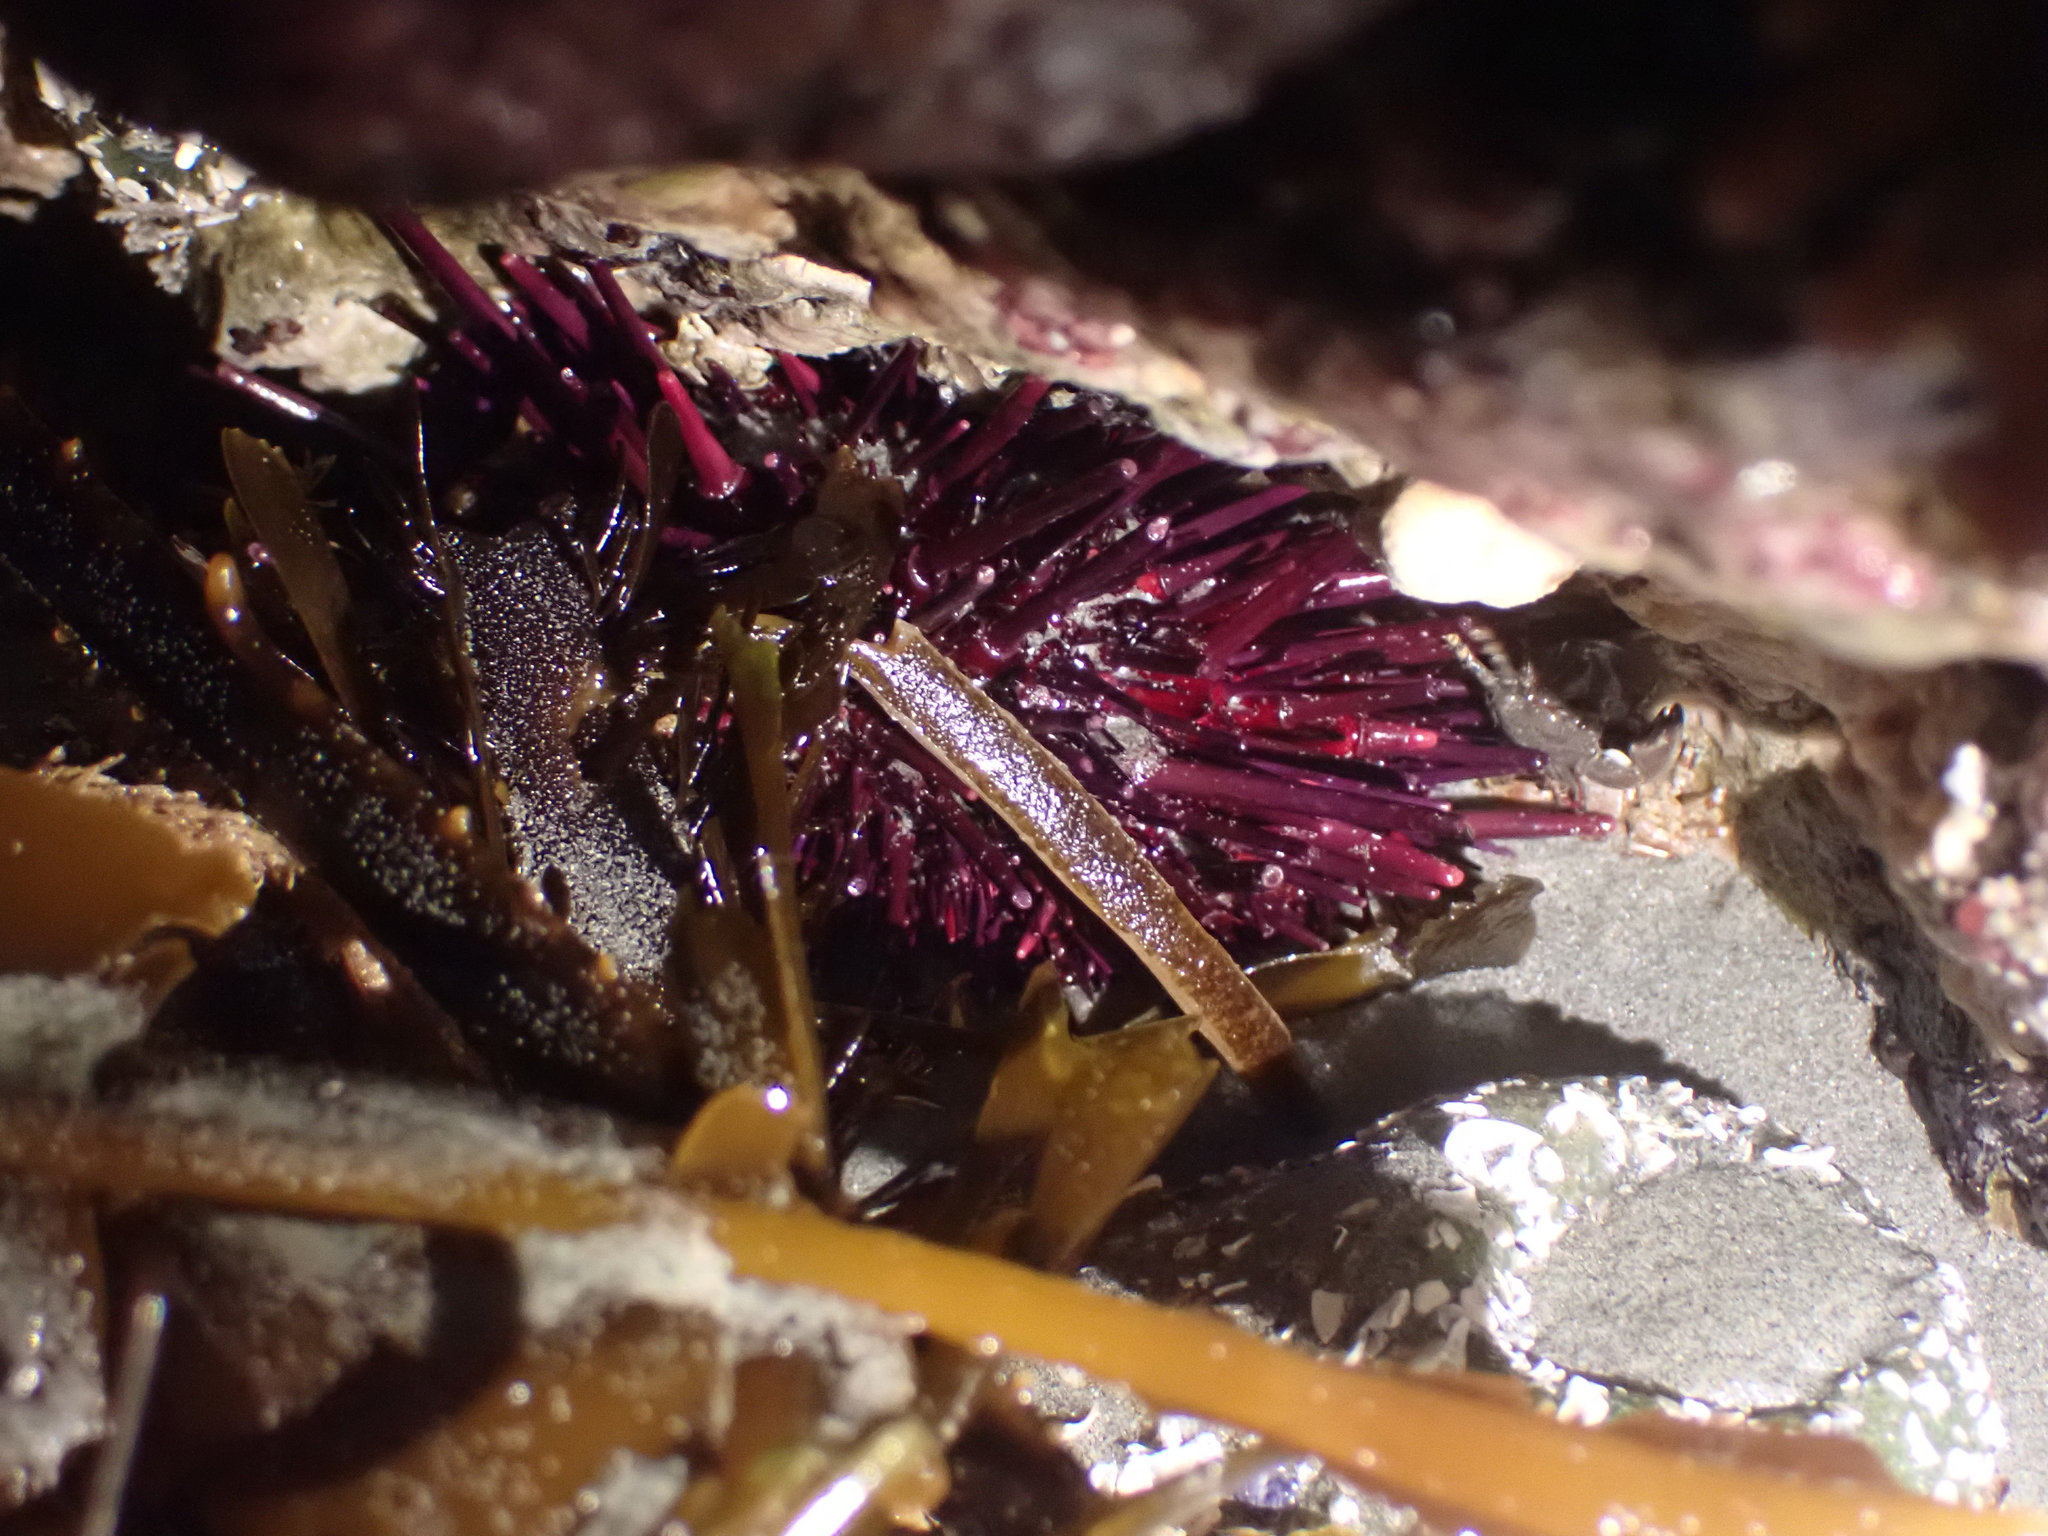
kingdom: Animalia
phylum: Echinodermata
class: Echinoidea
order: Camarodonta
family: Strongylocentrotidae
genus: Mesocentrotus
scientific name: Mesocentrotus franciscanus
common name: Red sea urchin
